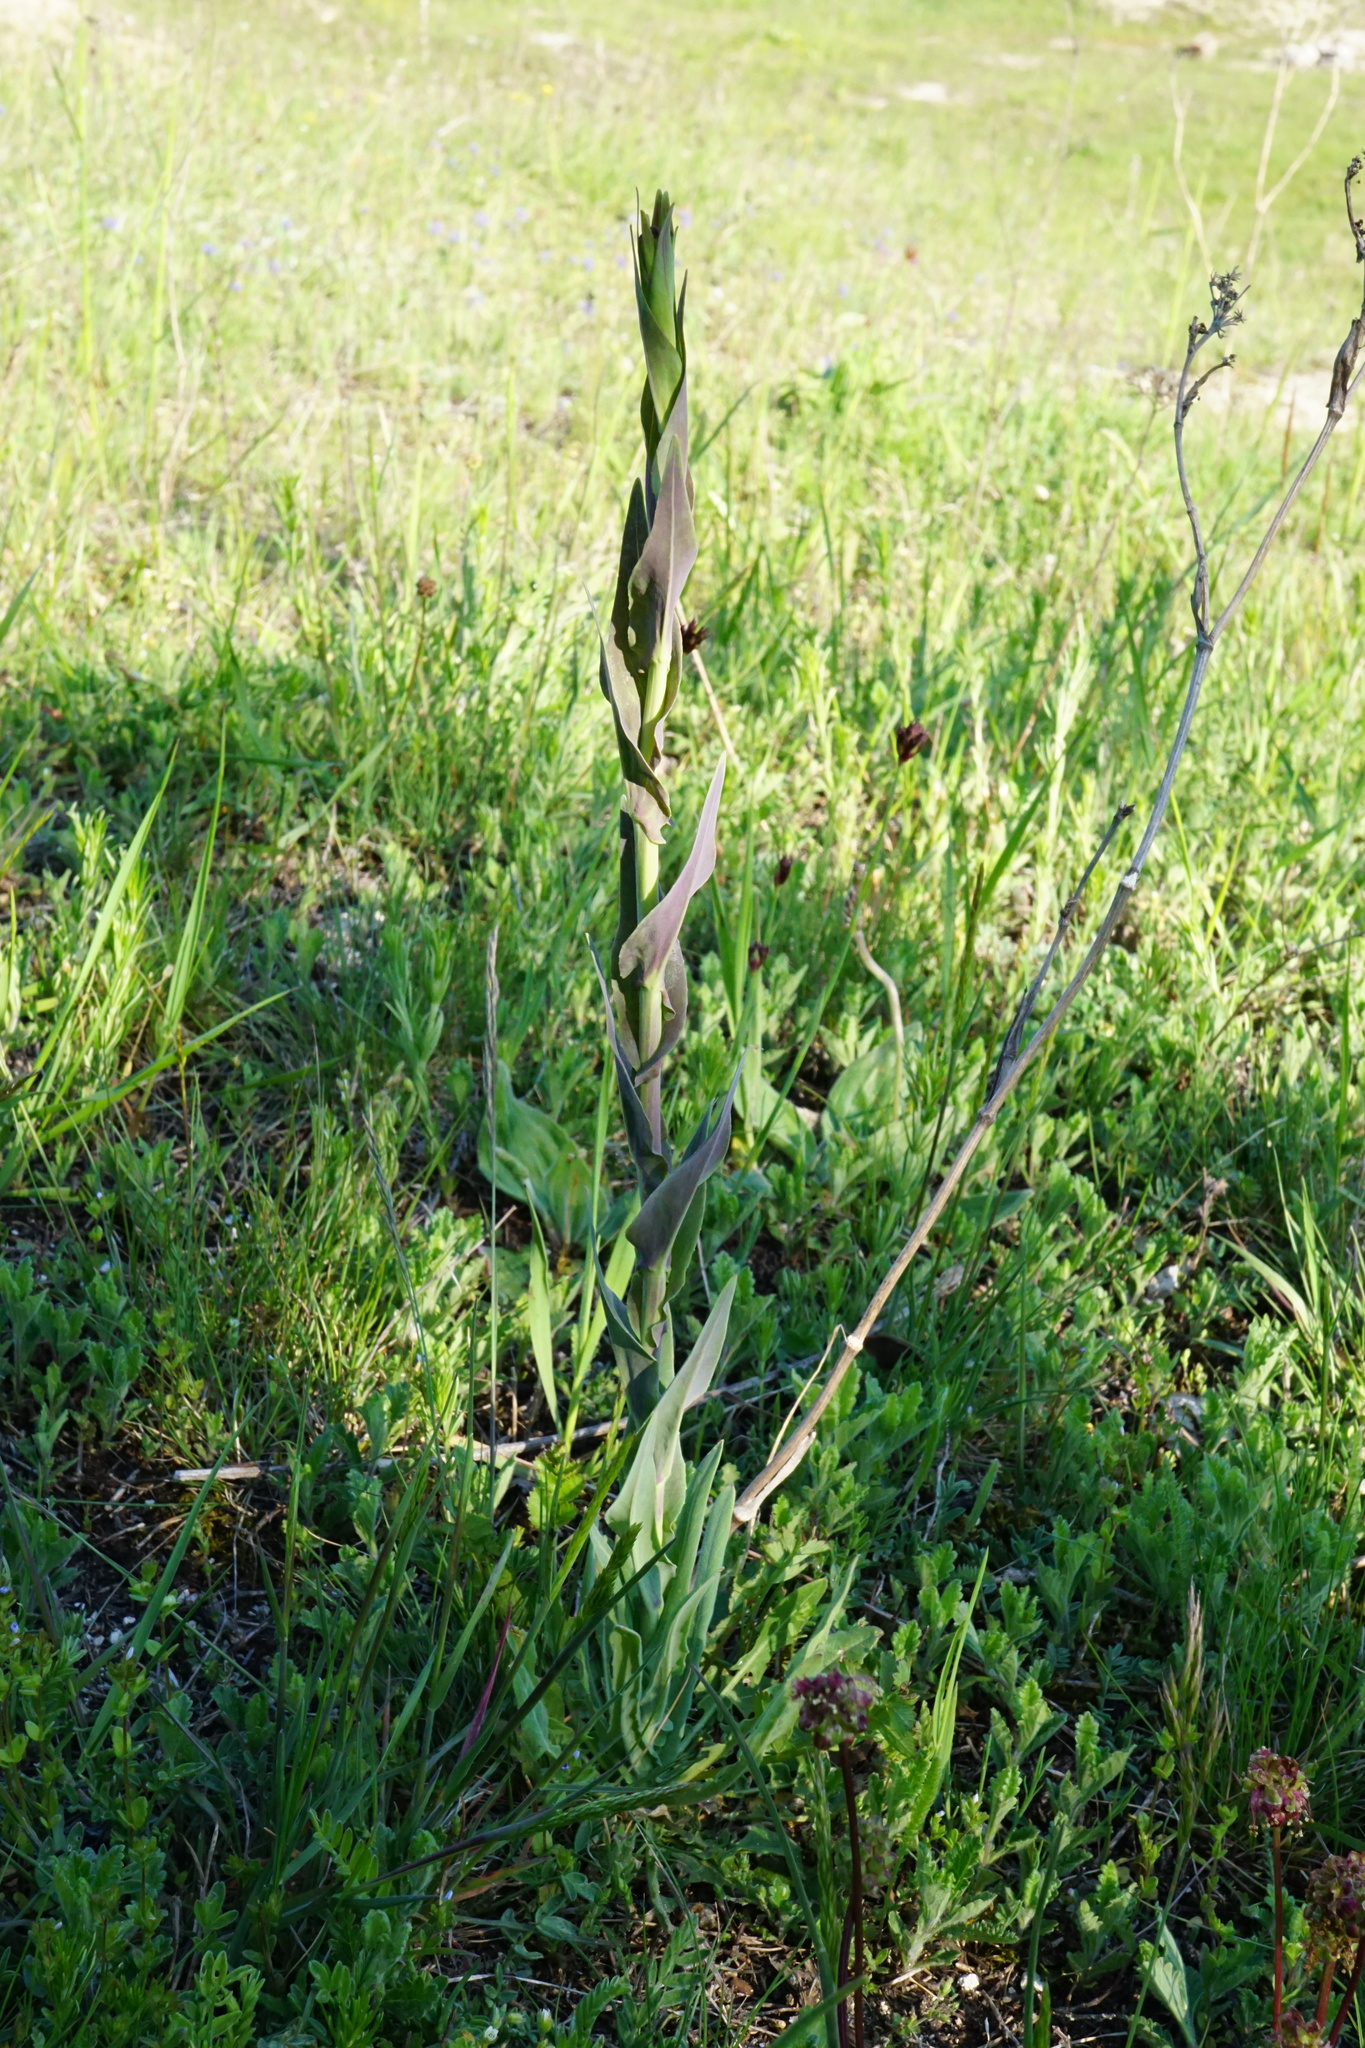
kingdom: Plantae
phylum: Tracheophyta
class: Magnoliopsida
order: Lamiales
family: Plantaginaceae
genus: Linaria
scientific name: Linaria genistifolia
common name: Broomleaf toadflax
